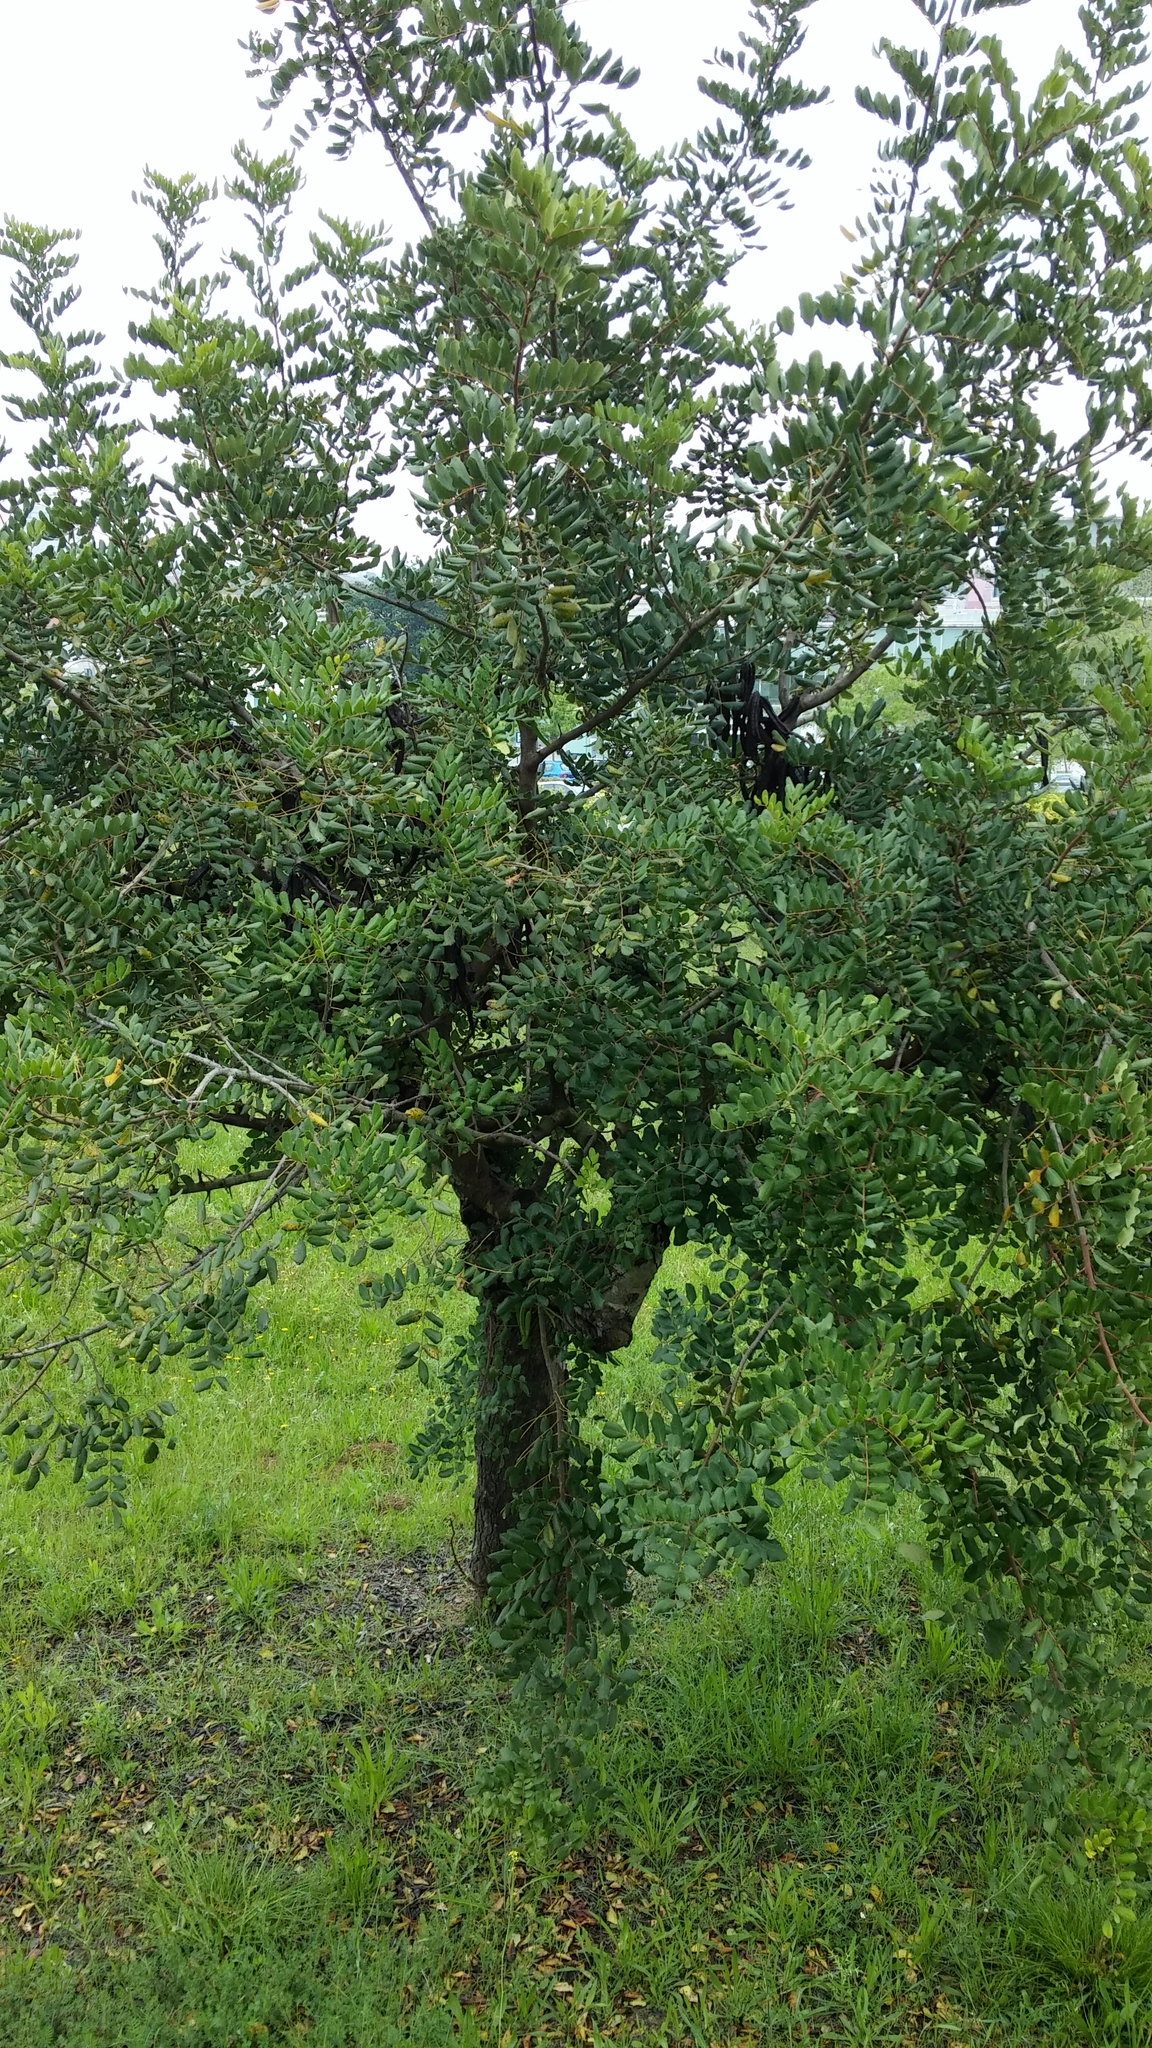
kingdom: Plantae
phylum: Tracheophyta
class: Magnoliopsida
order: Fabales
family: Fabaceae
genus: Ceratonia
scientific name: Ceratonia siliqua
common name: Carob
